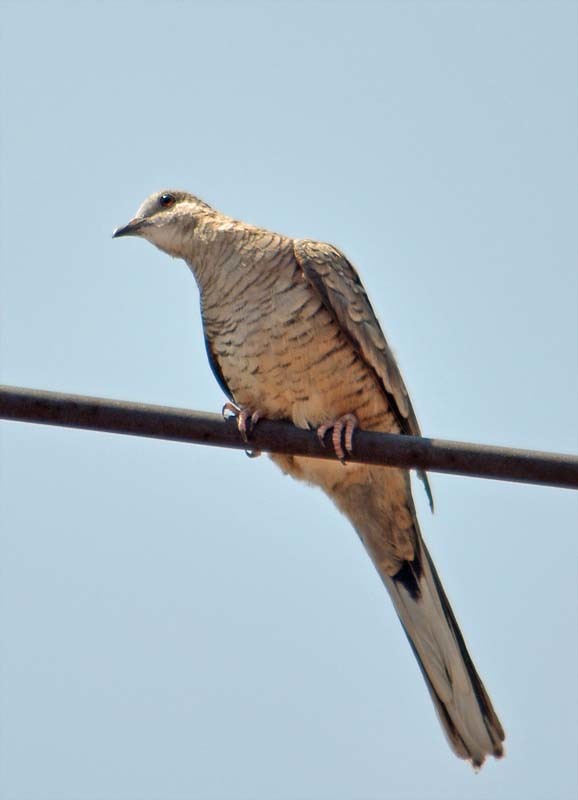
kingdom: Animalia
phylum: Chordata
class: Aves
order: Columbiformes
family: Columbidae
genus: Columbina
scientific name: Columbina inca
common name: Inca dove
